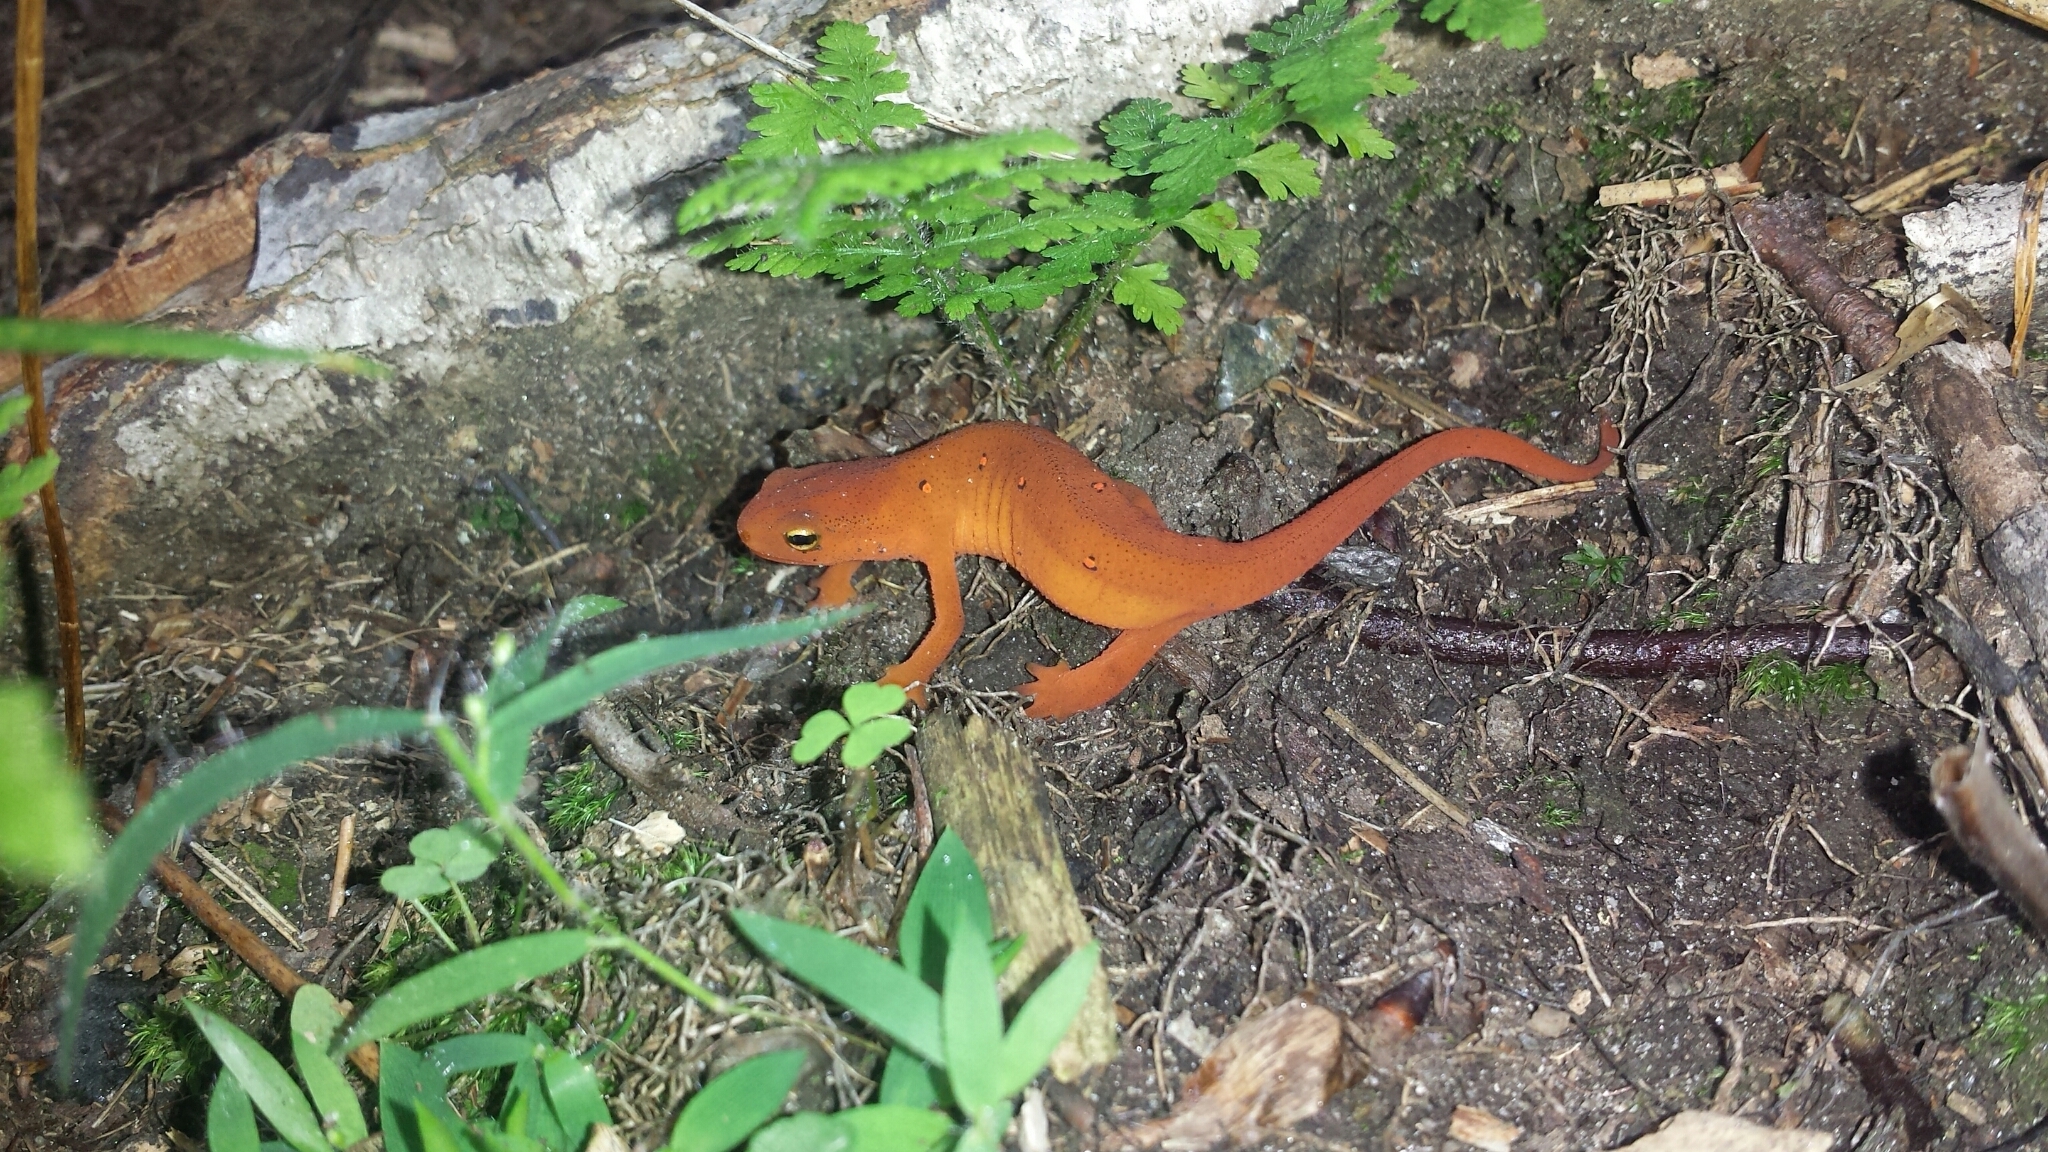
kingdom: Animalia
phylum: Chordata
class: Amphibia
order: Caudata
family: Salamandridae
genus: Notophthalmus
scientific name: Notophthalmus viridescens
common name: Eastern newt
